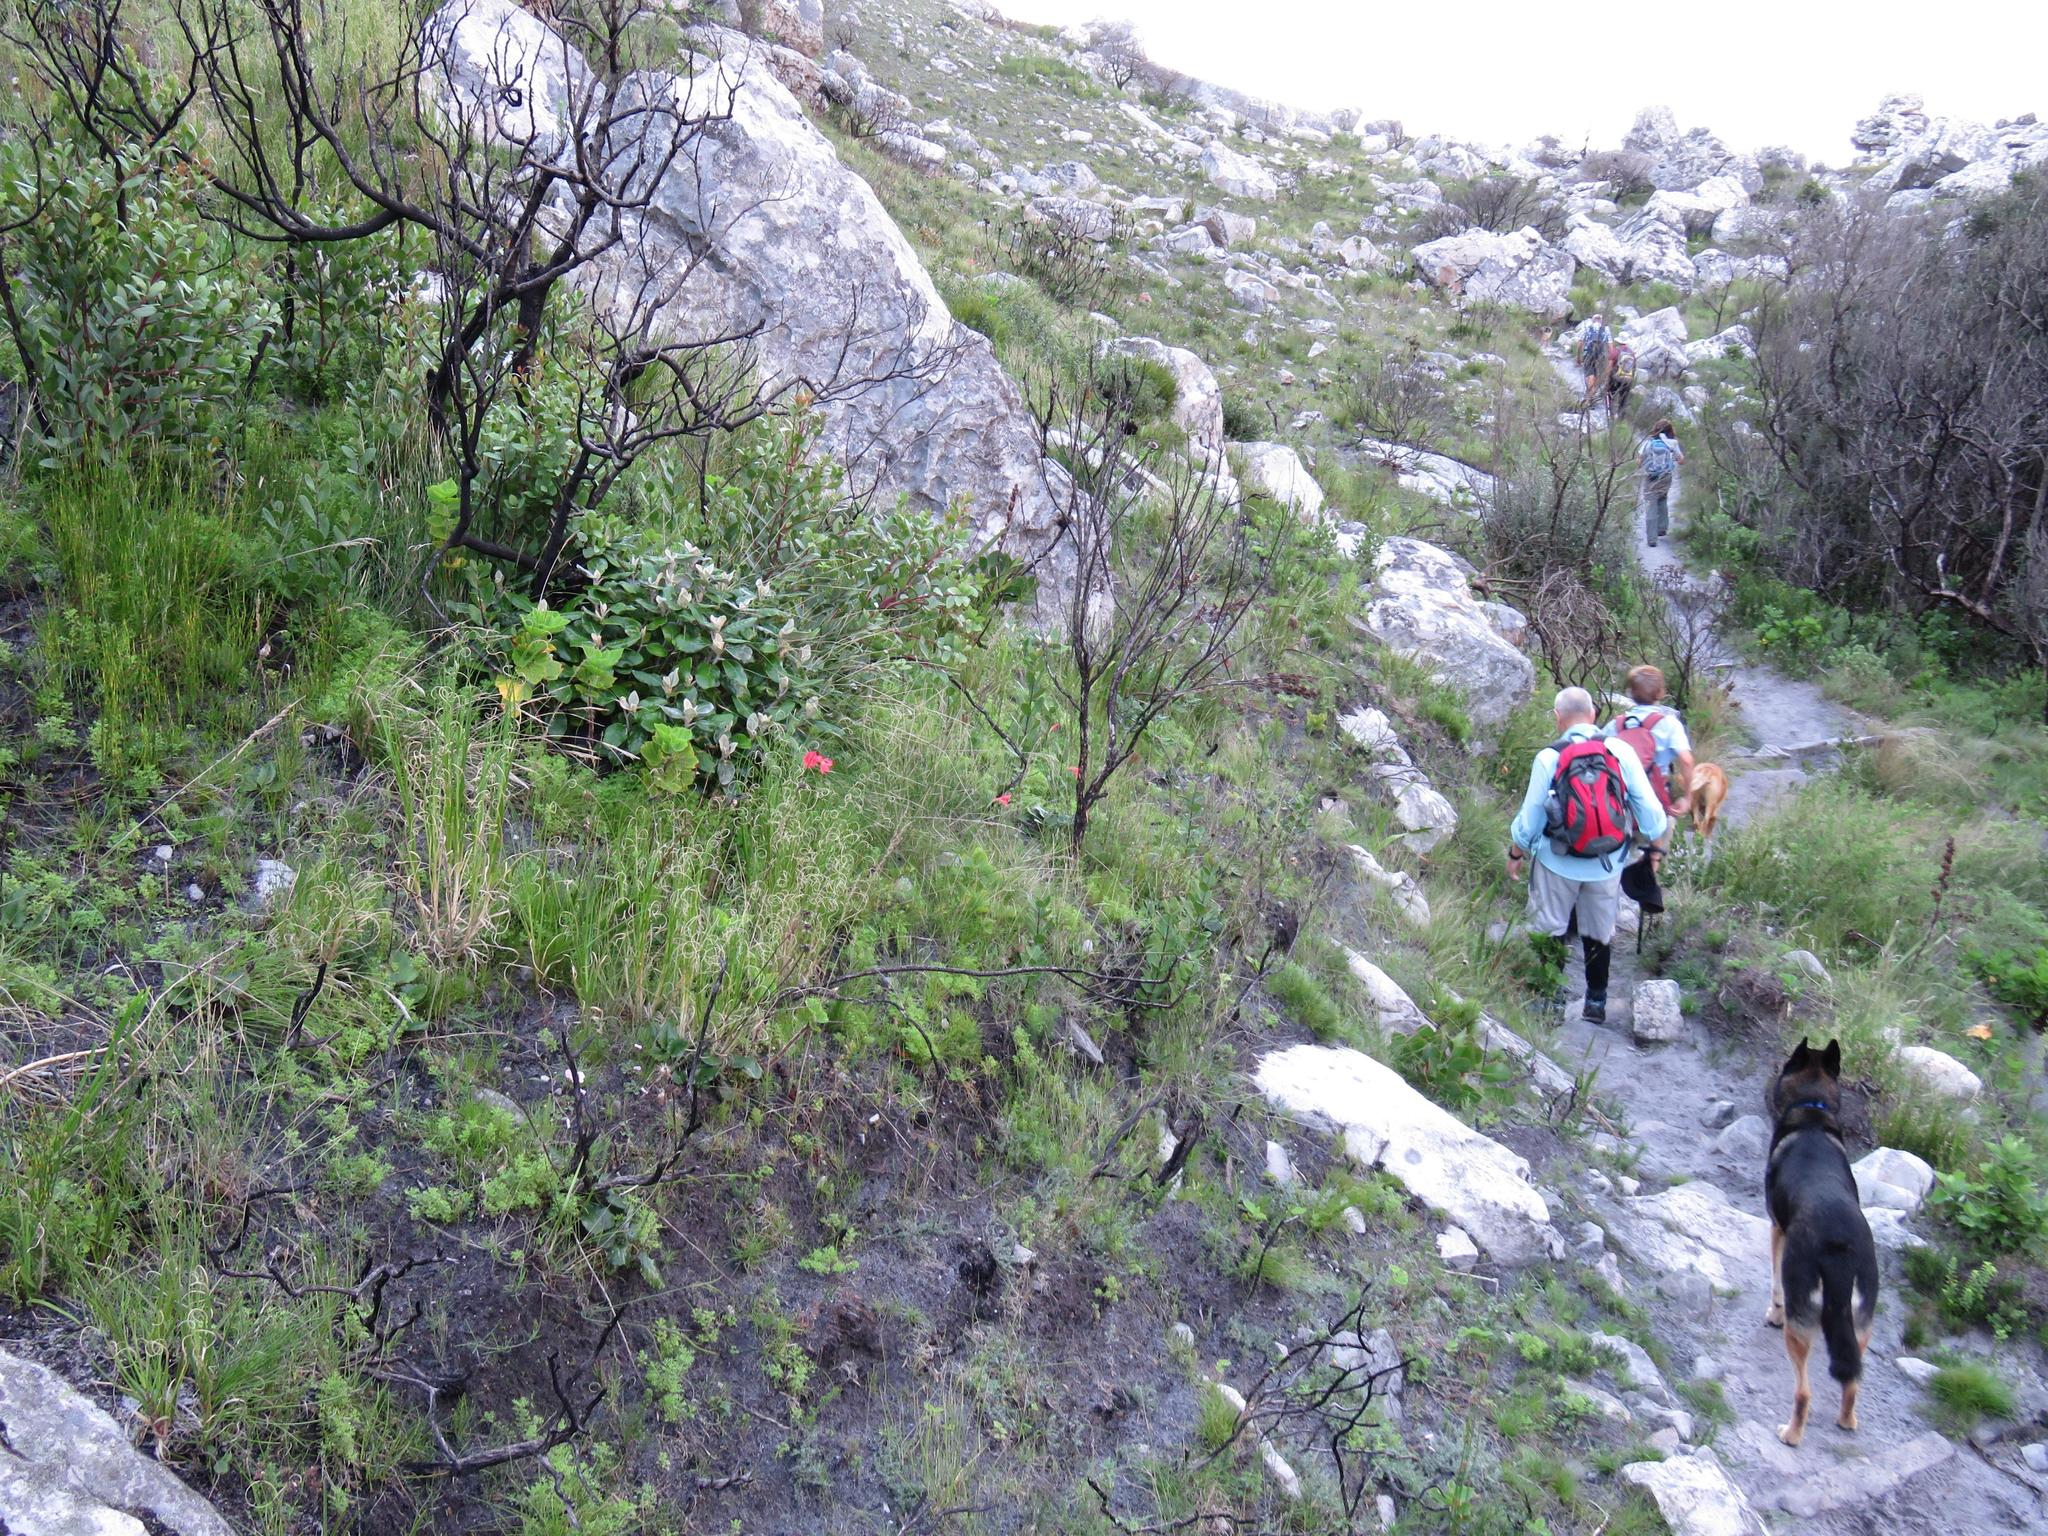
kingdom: Plantae
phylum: Tracheophyta
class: Liliopsida
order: Asparagales
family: Iridaceae
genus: Gladiolus
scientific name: Gladiolus priorii
